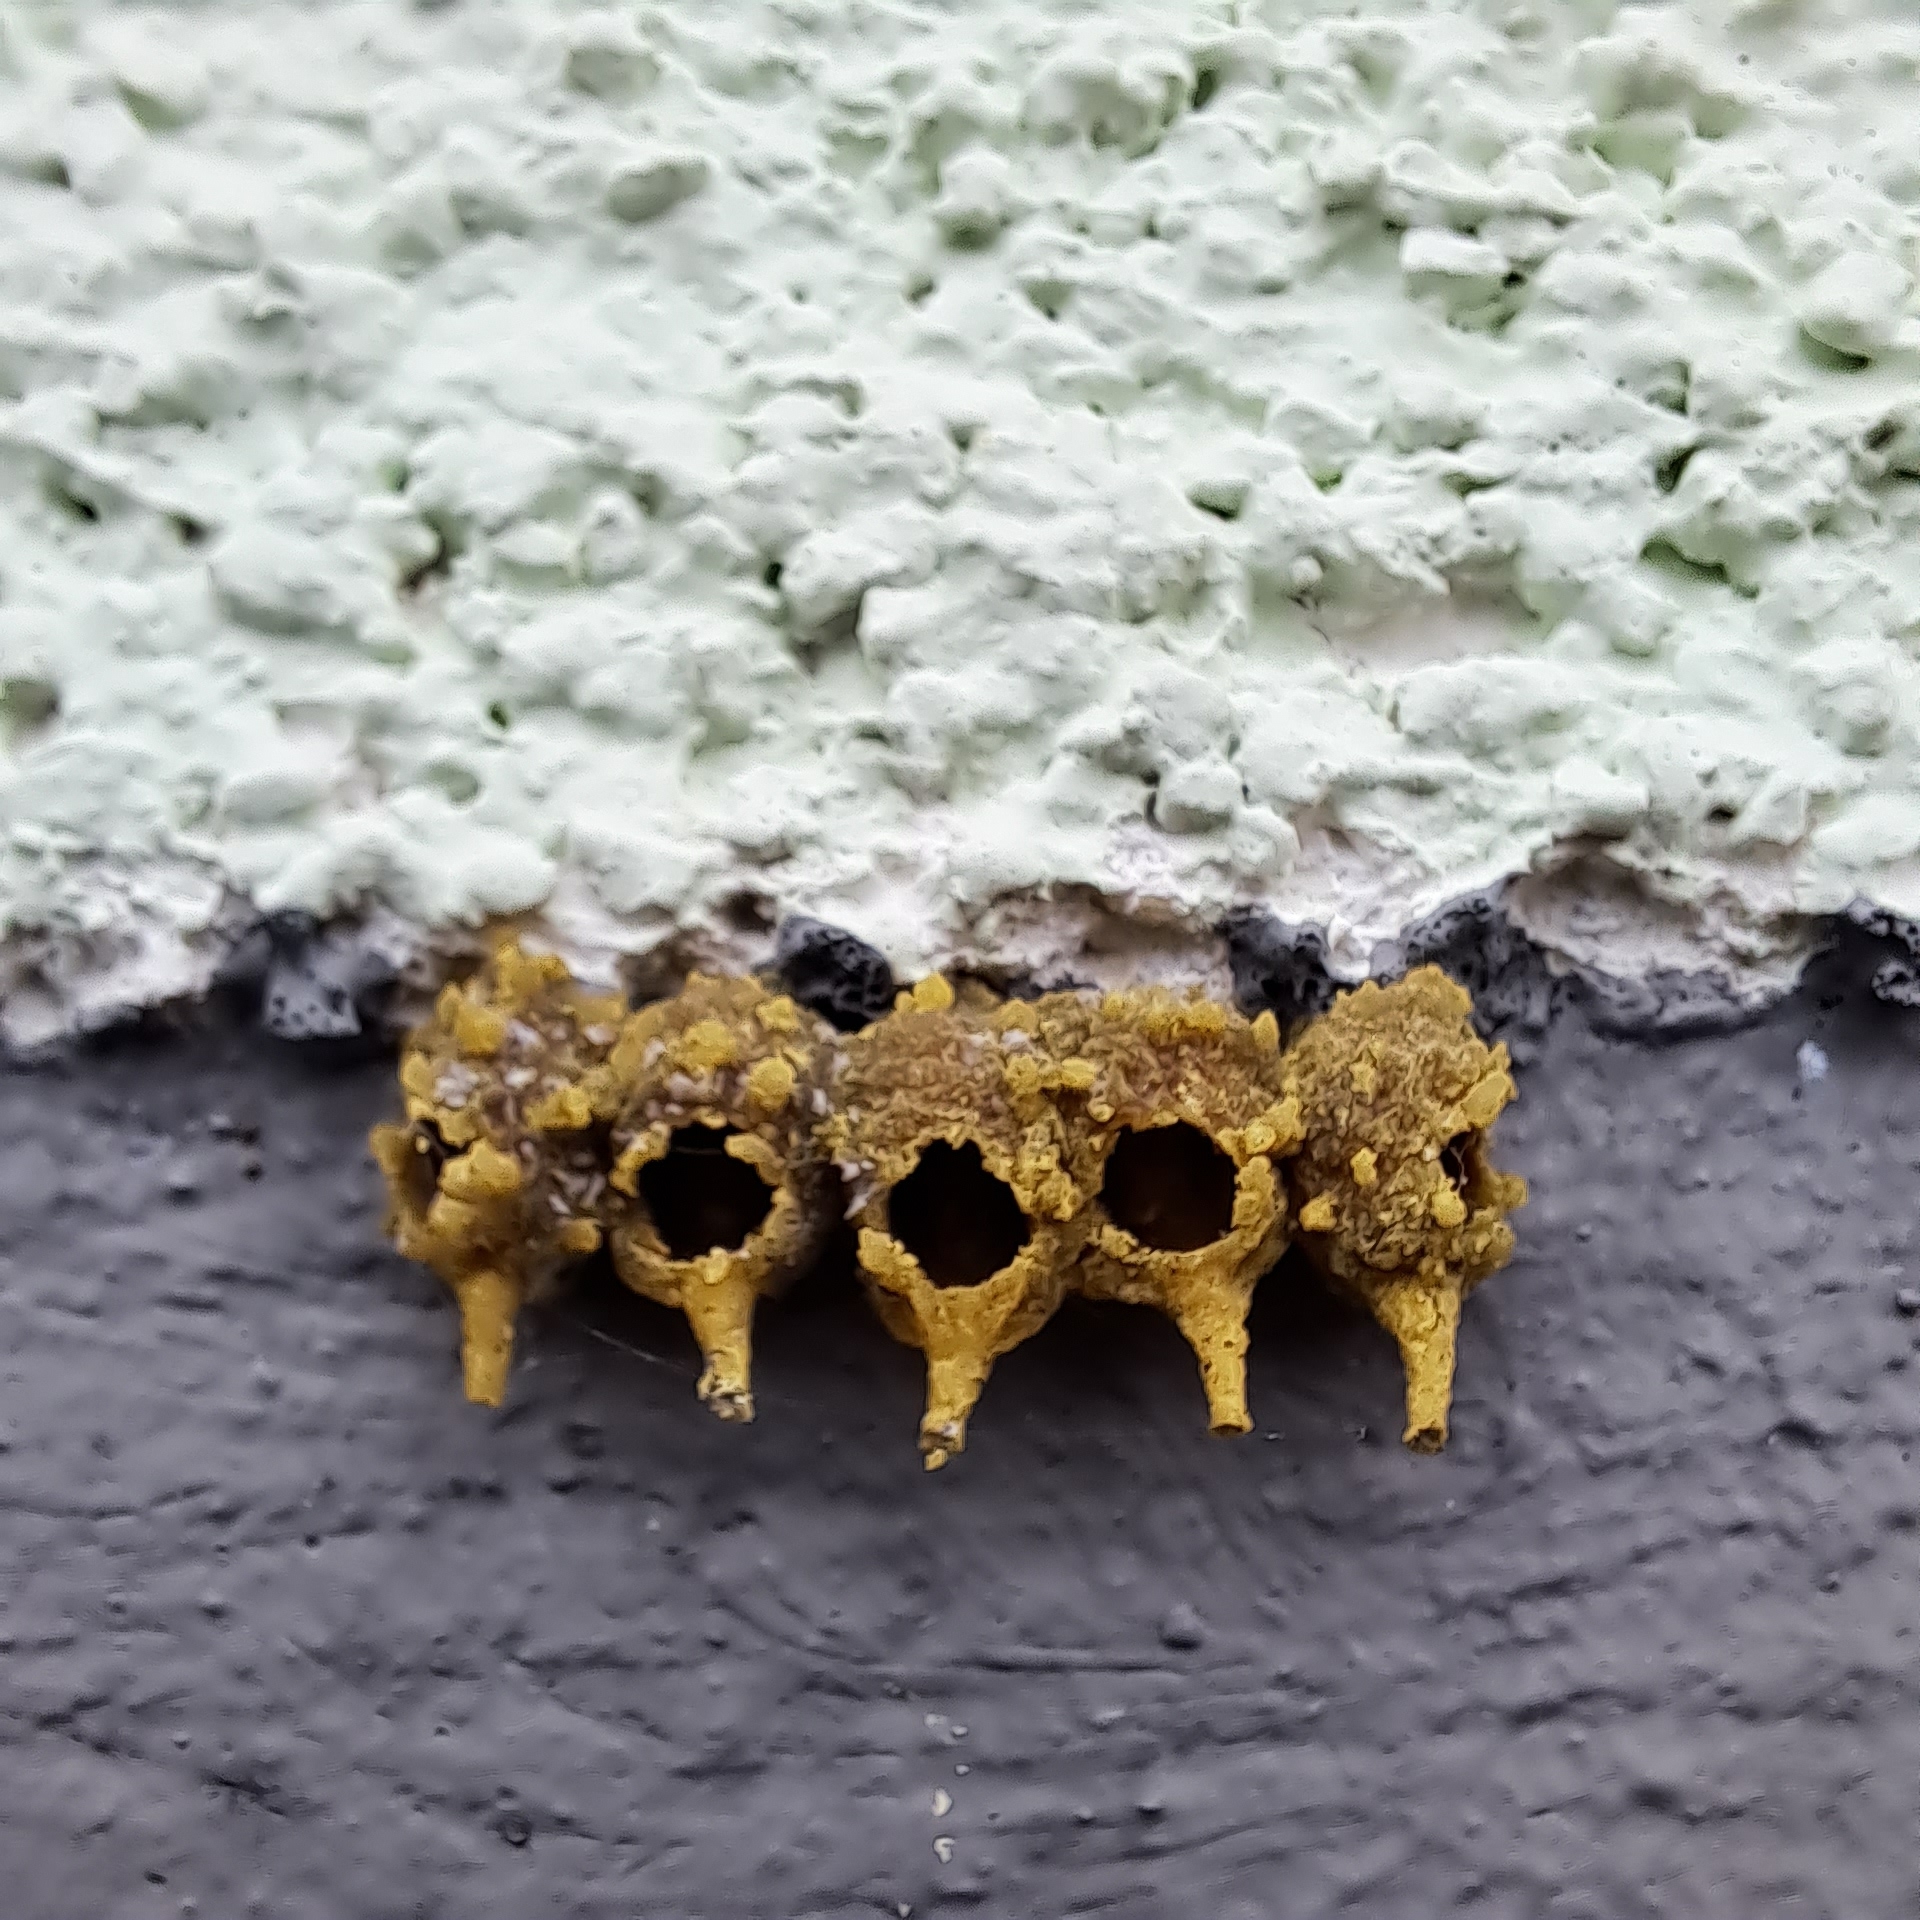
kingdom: Animalia
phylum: Arthropoda
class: Insecta
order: Hymenoptera
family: Megachilidae
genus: Anthidiellum
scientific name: Anthidiellum strigatum
